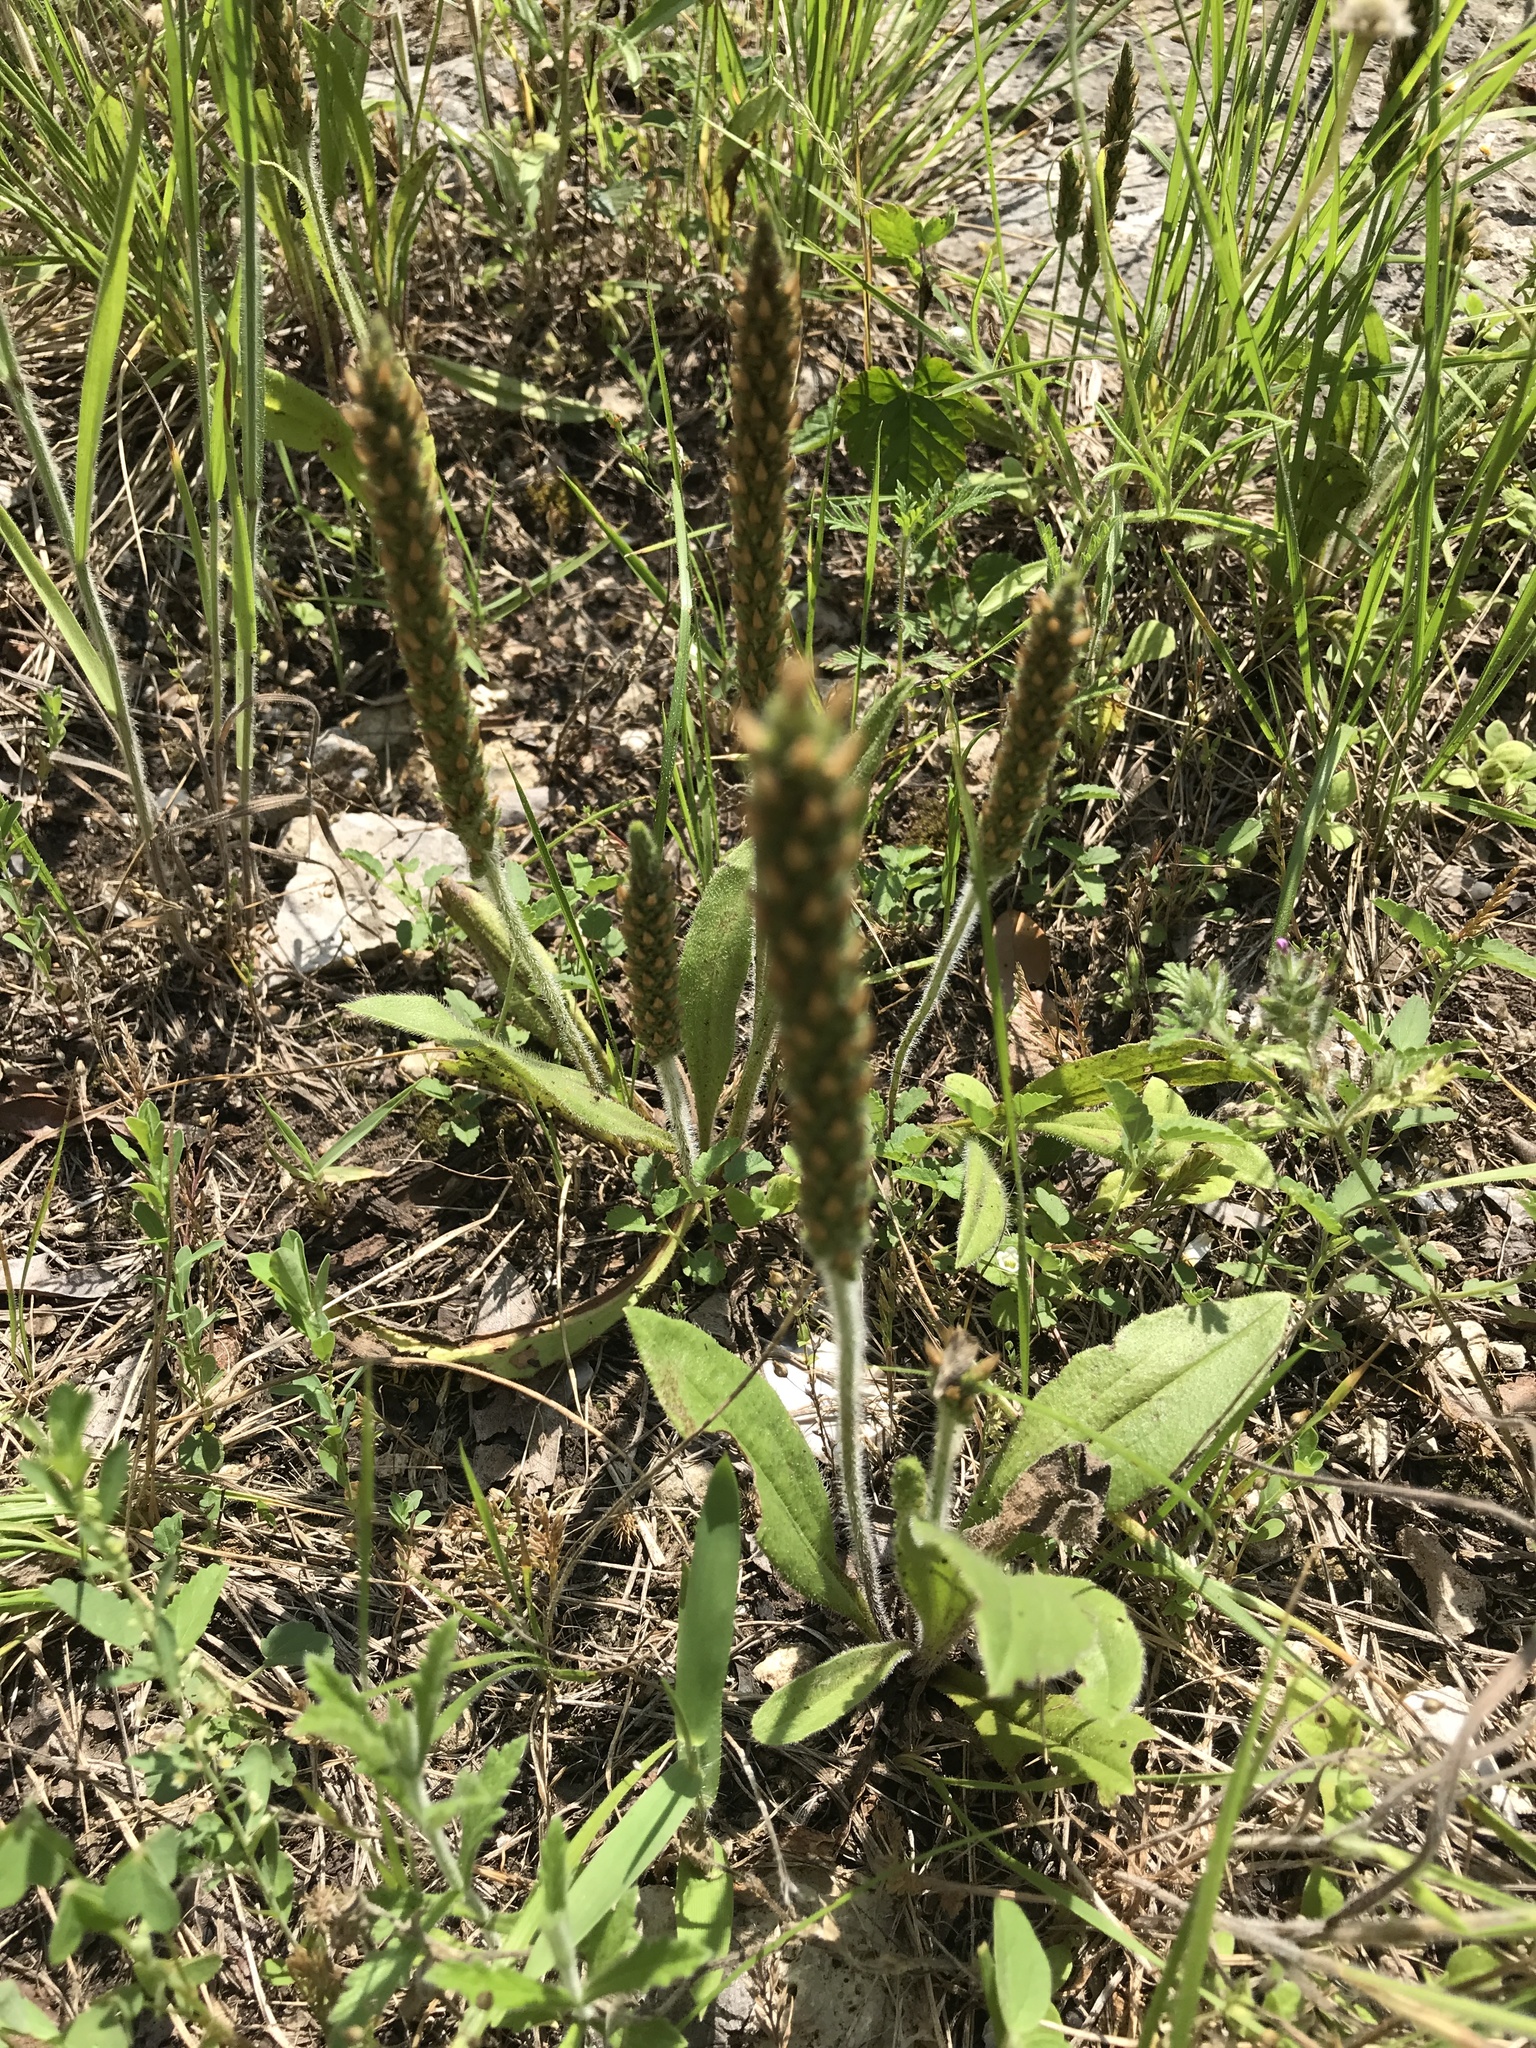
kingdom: Plantae
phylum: Tracheophyta
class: Magnoliopsida
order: Lamiales
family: Plantaginaceae
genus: Plantago
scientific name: Plantago rhodosperma
